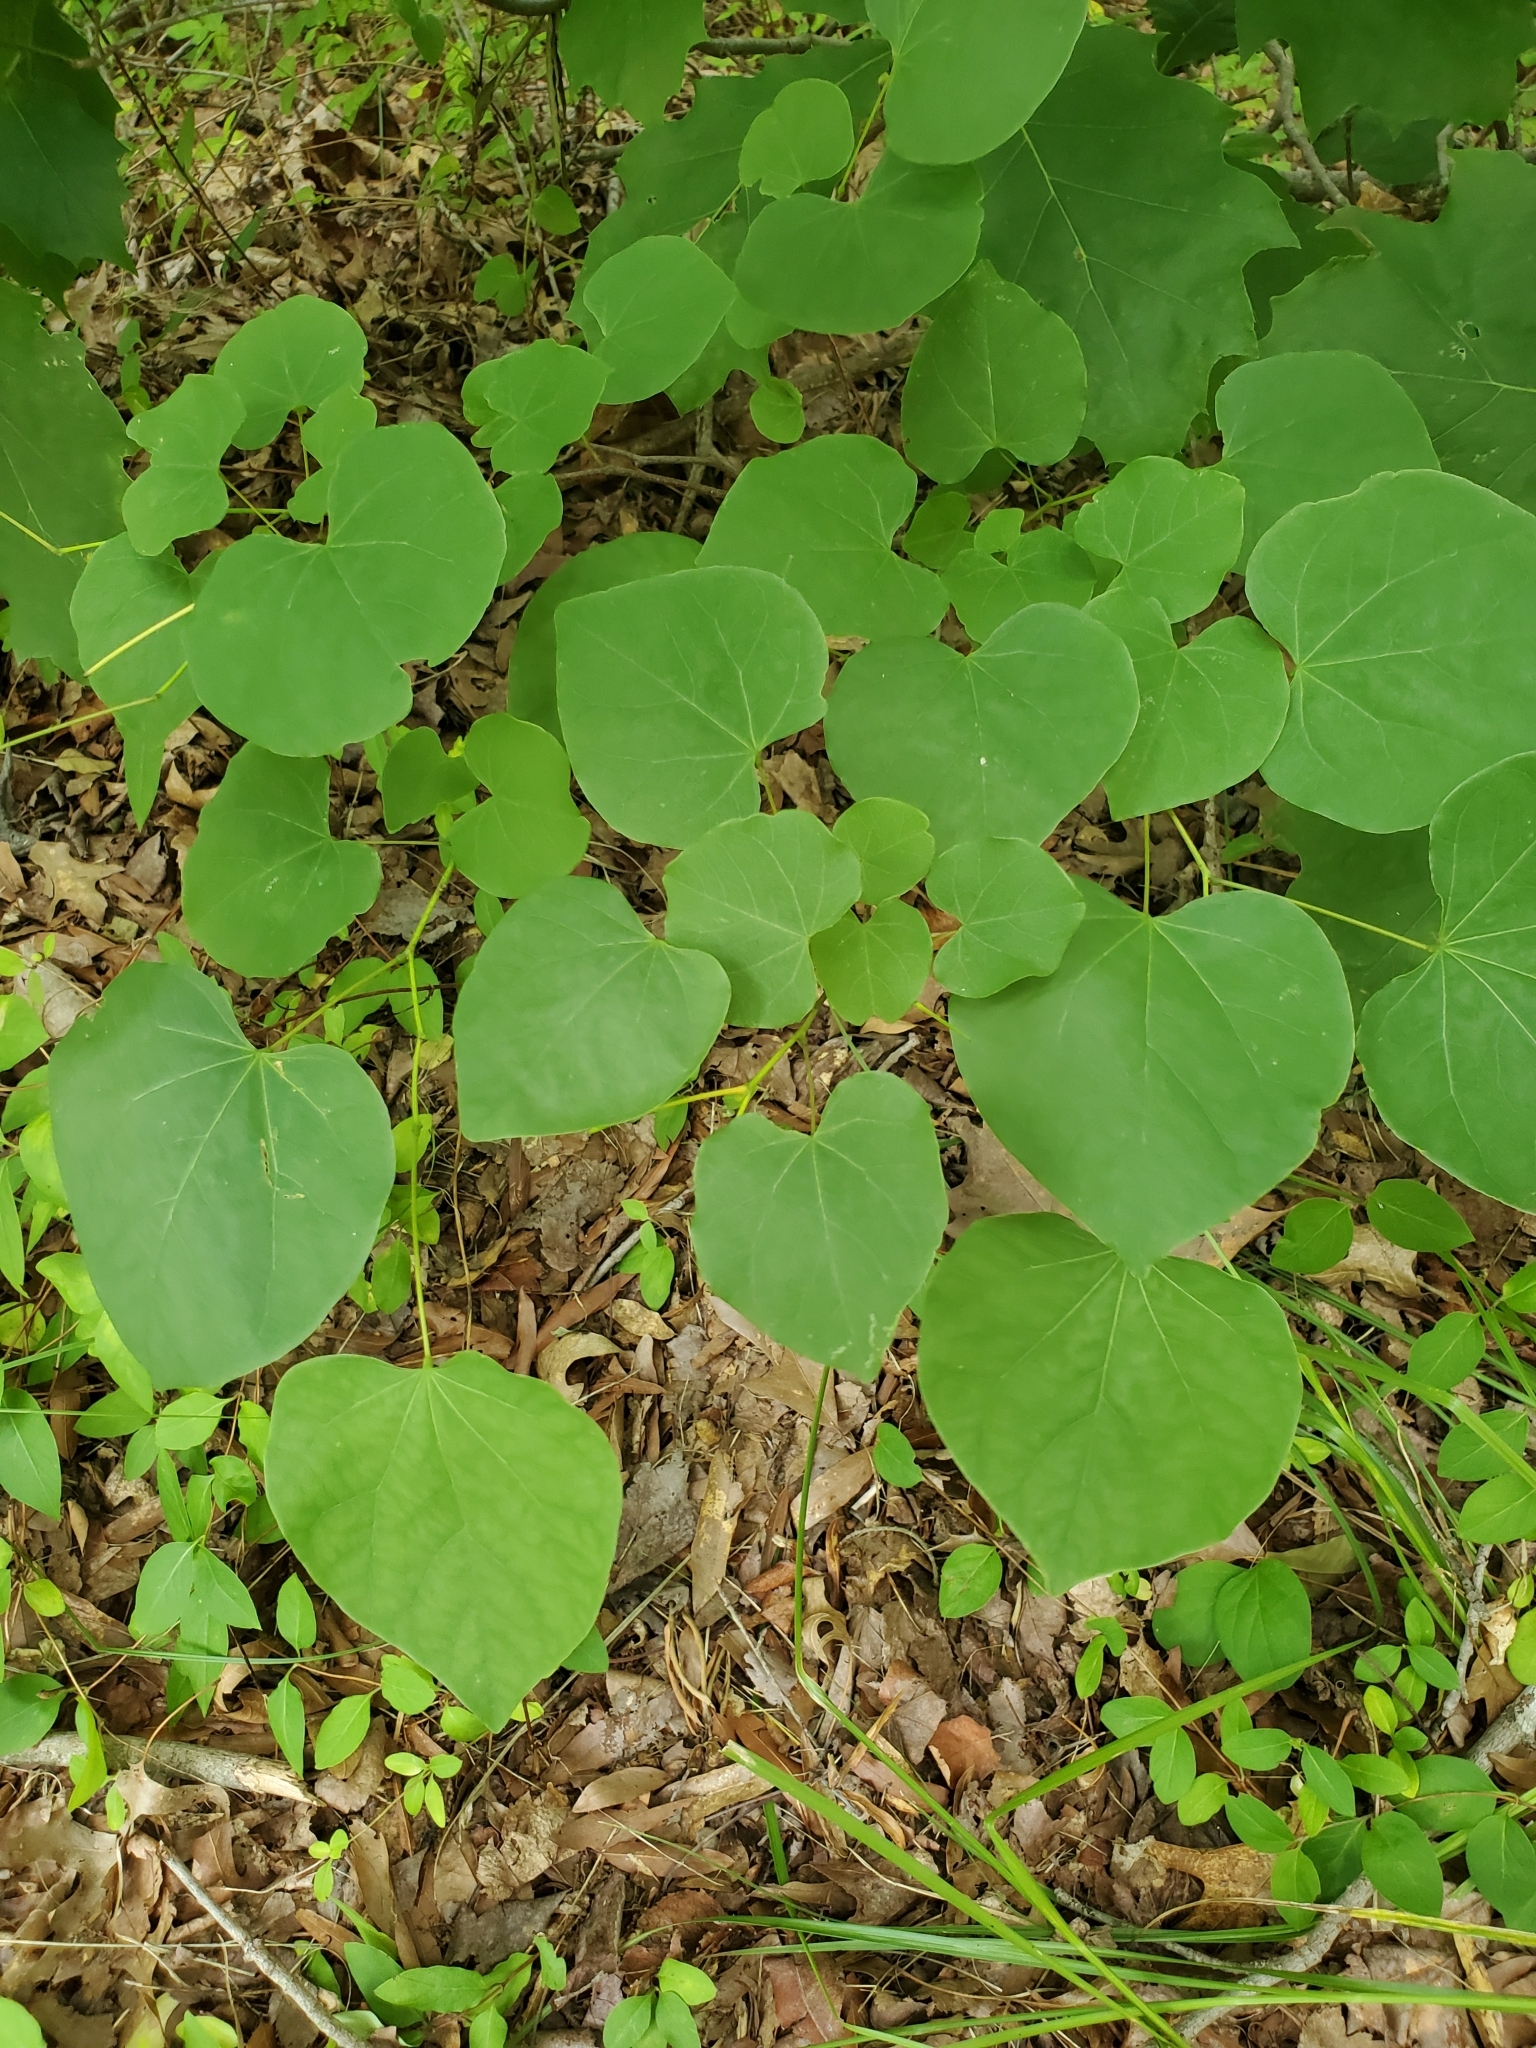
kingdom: Plantae
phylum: Tracheophyta
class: Magnoliopsida
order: Fabales
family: Fabaceae
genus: Cercis
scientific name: Cercis canadensis
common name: Eastern redbud
